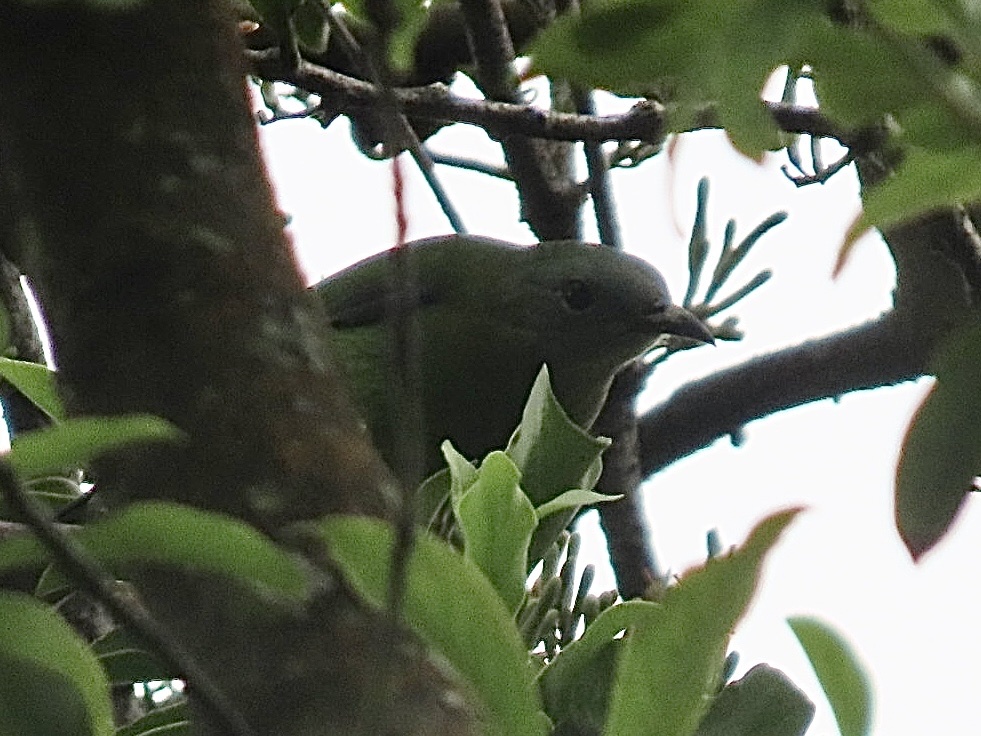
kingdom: Animalia
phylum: Chordata
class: Aves
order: Passeriformes
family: Chloropseidae
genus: Chloropsis
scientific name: Chloropsis hardwickii
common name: Orange-bellied leafbird
